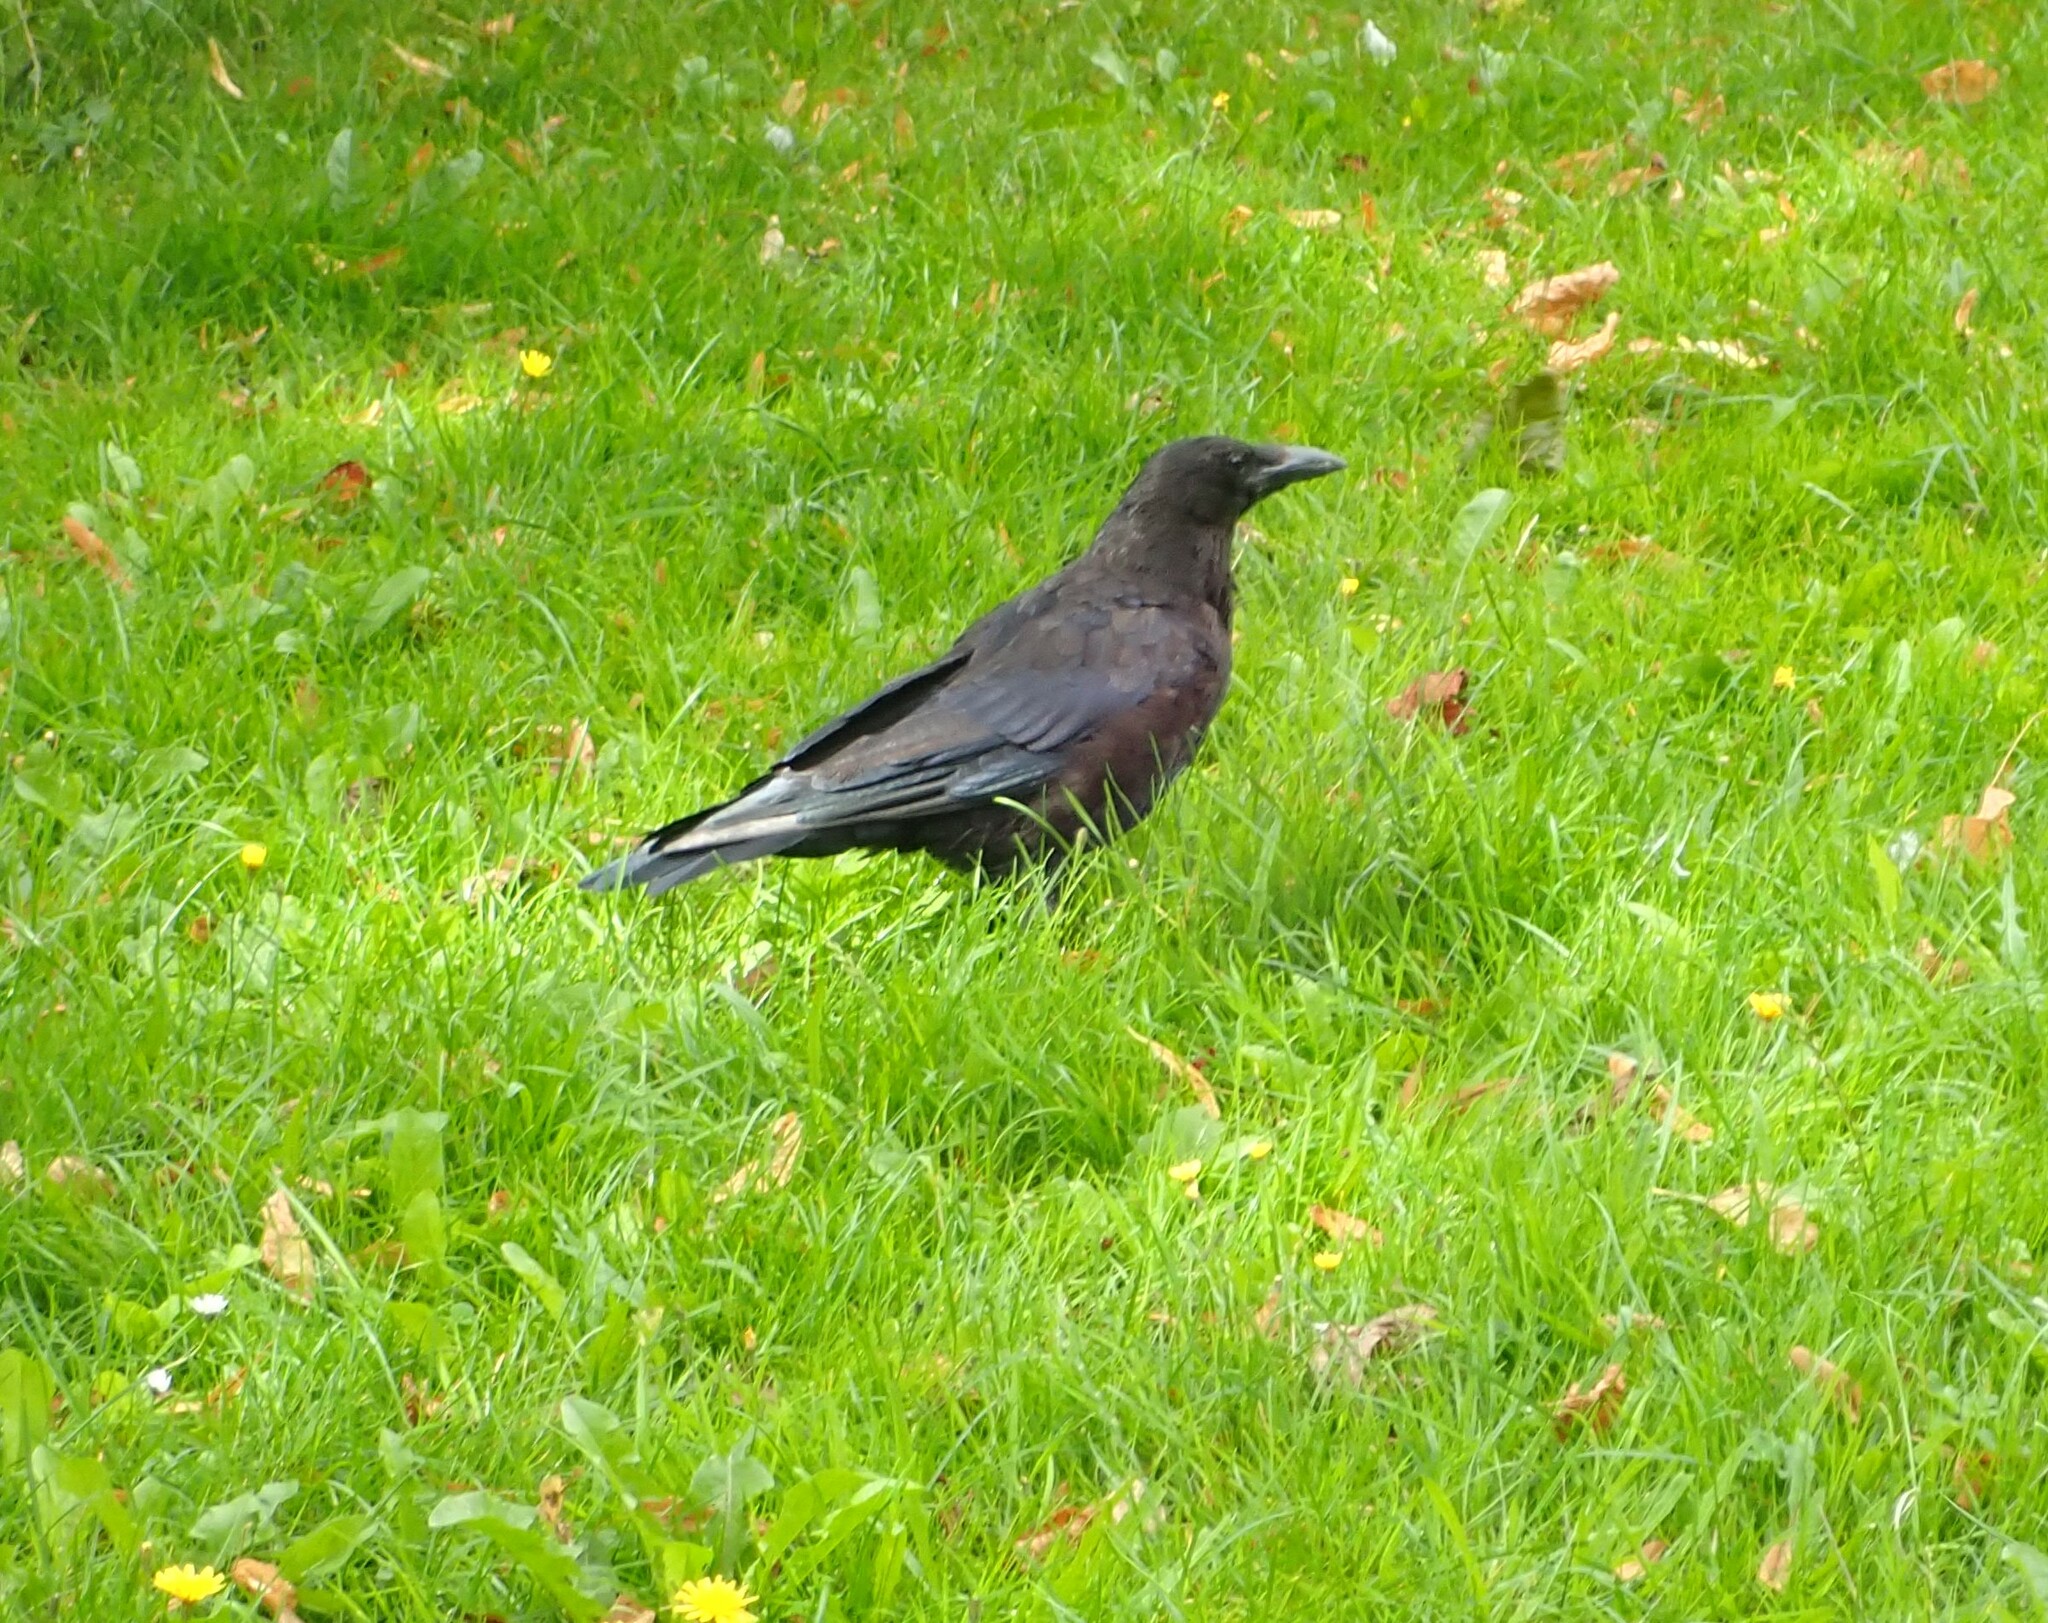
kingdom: Animalia
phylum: Chordata
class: Aves
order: Passeriformes
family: Corvidae
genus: Corvus
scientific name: Corvus corone
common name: Carrion crow
